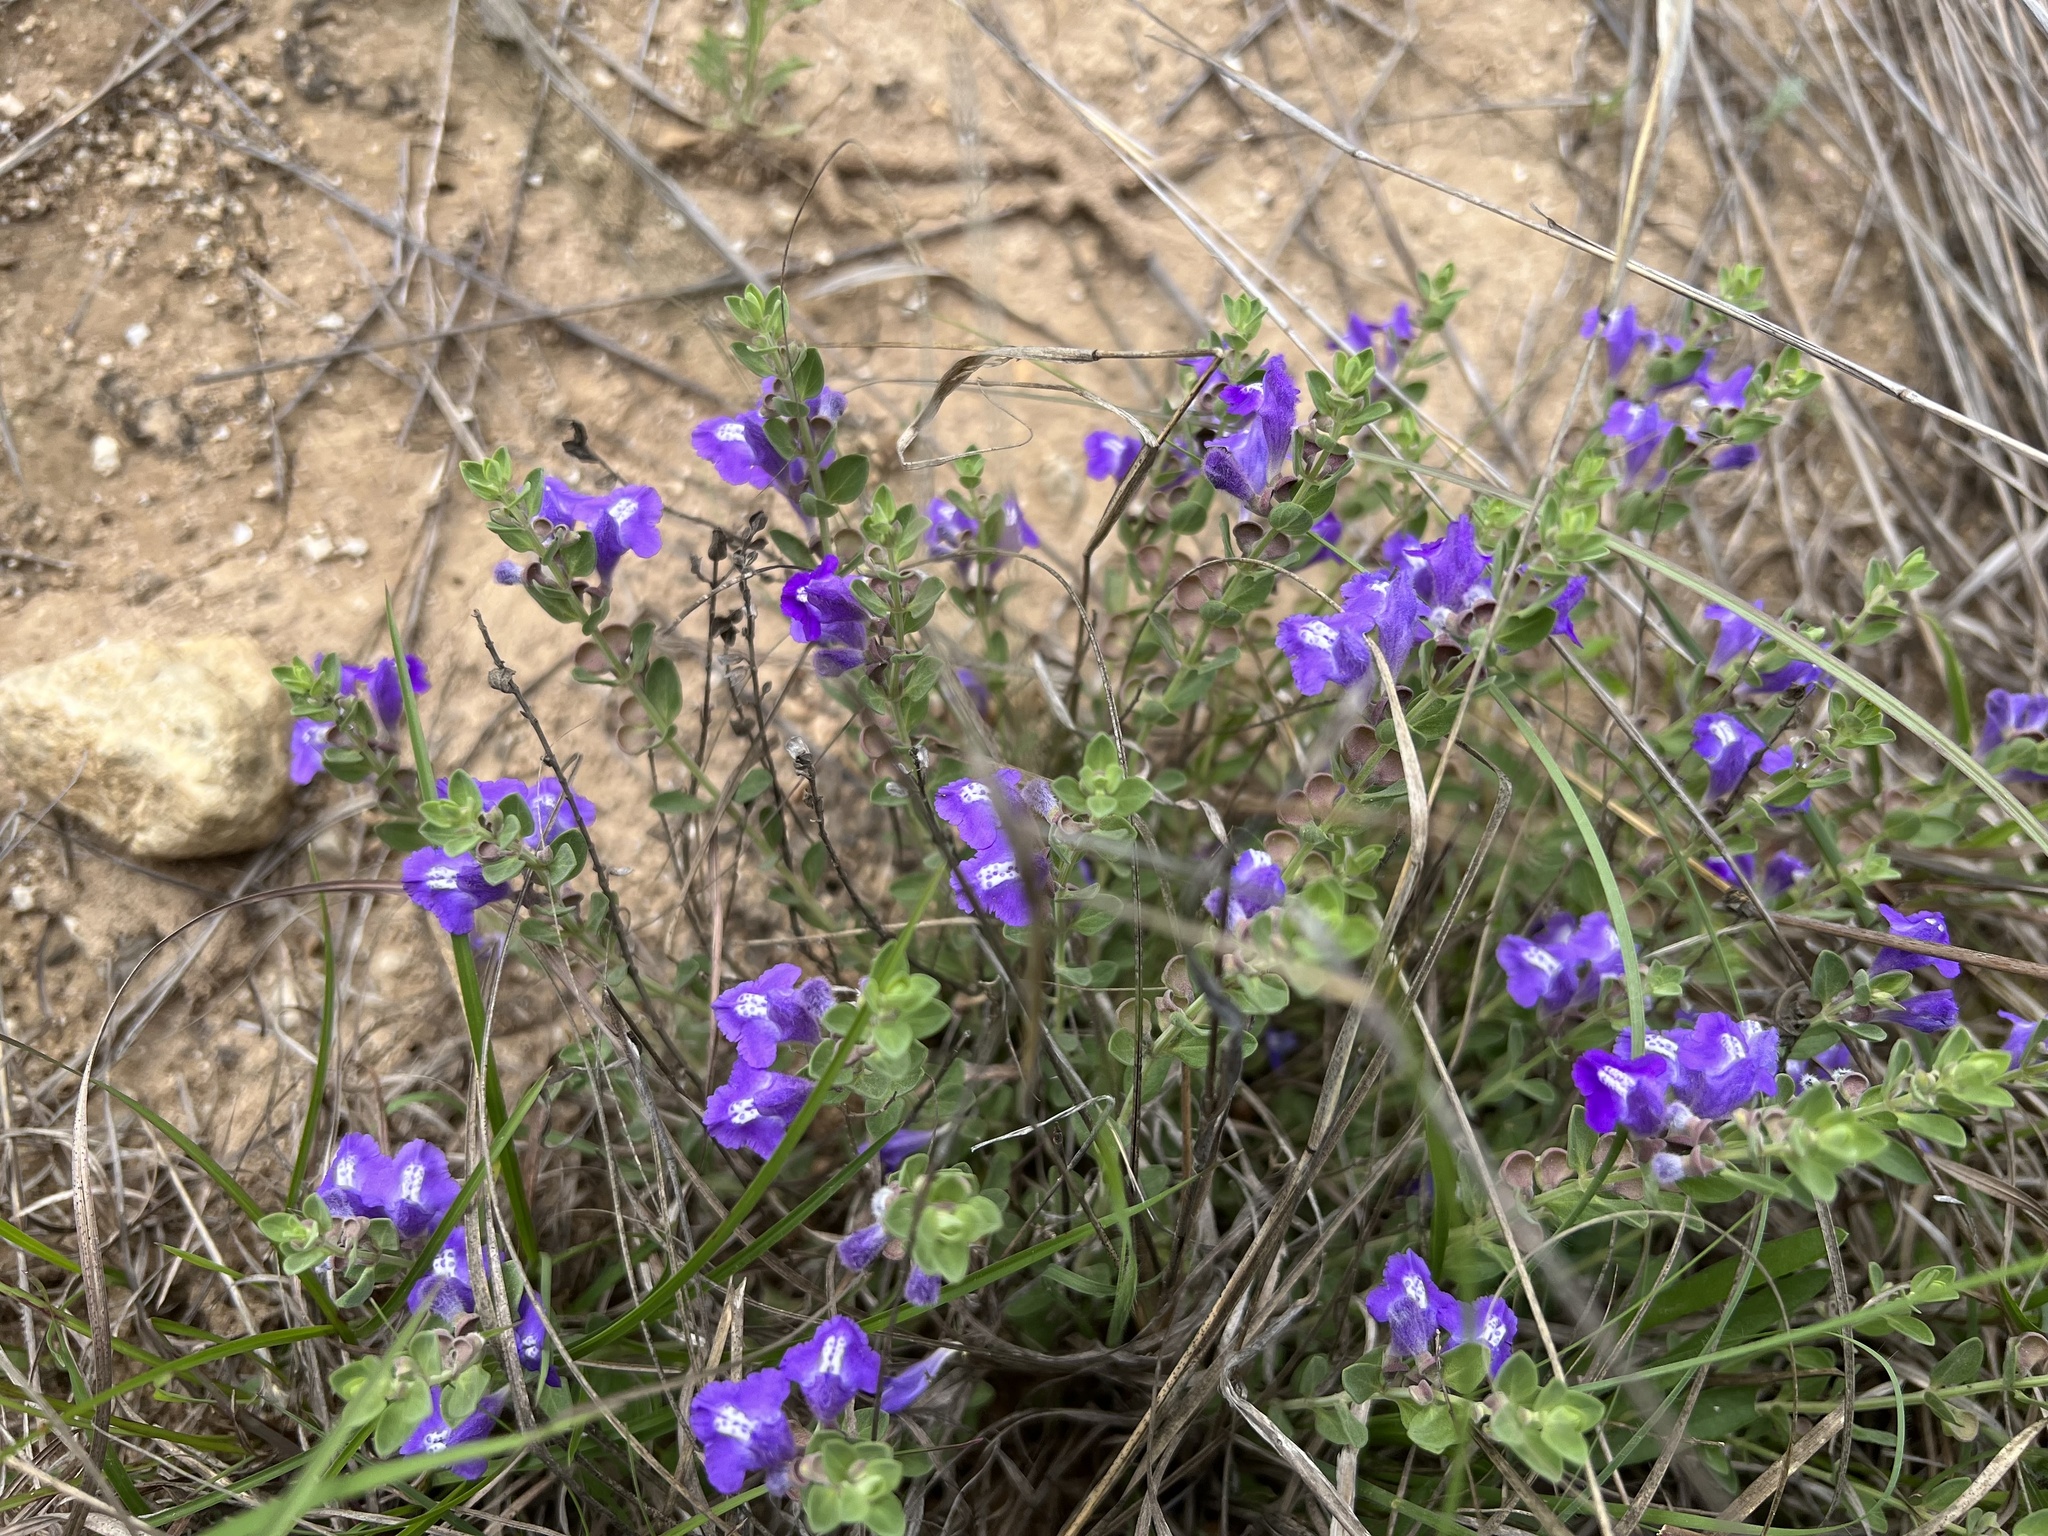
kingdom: Plantae
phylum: Tracheophyta
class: Magnoliopsida
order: Lamiales
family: Lamiaceae
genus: Scutellaria
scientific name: Scutellaria wrightii
